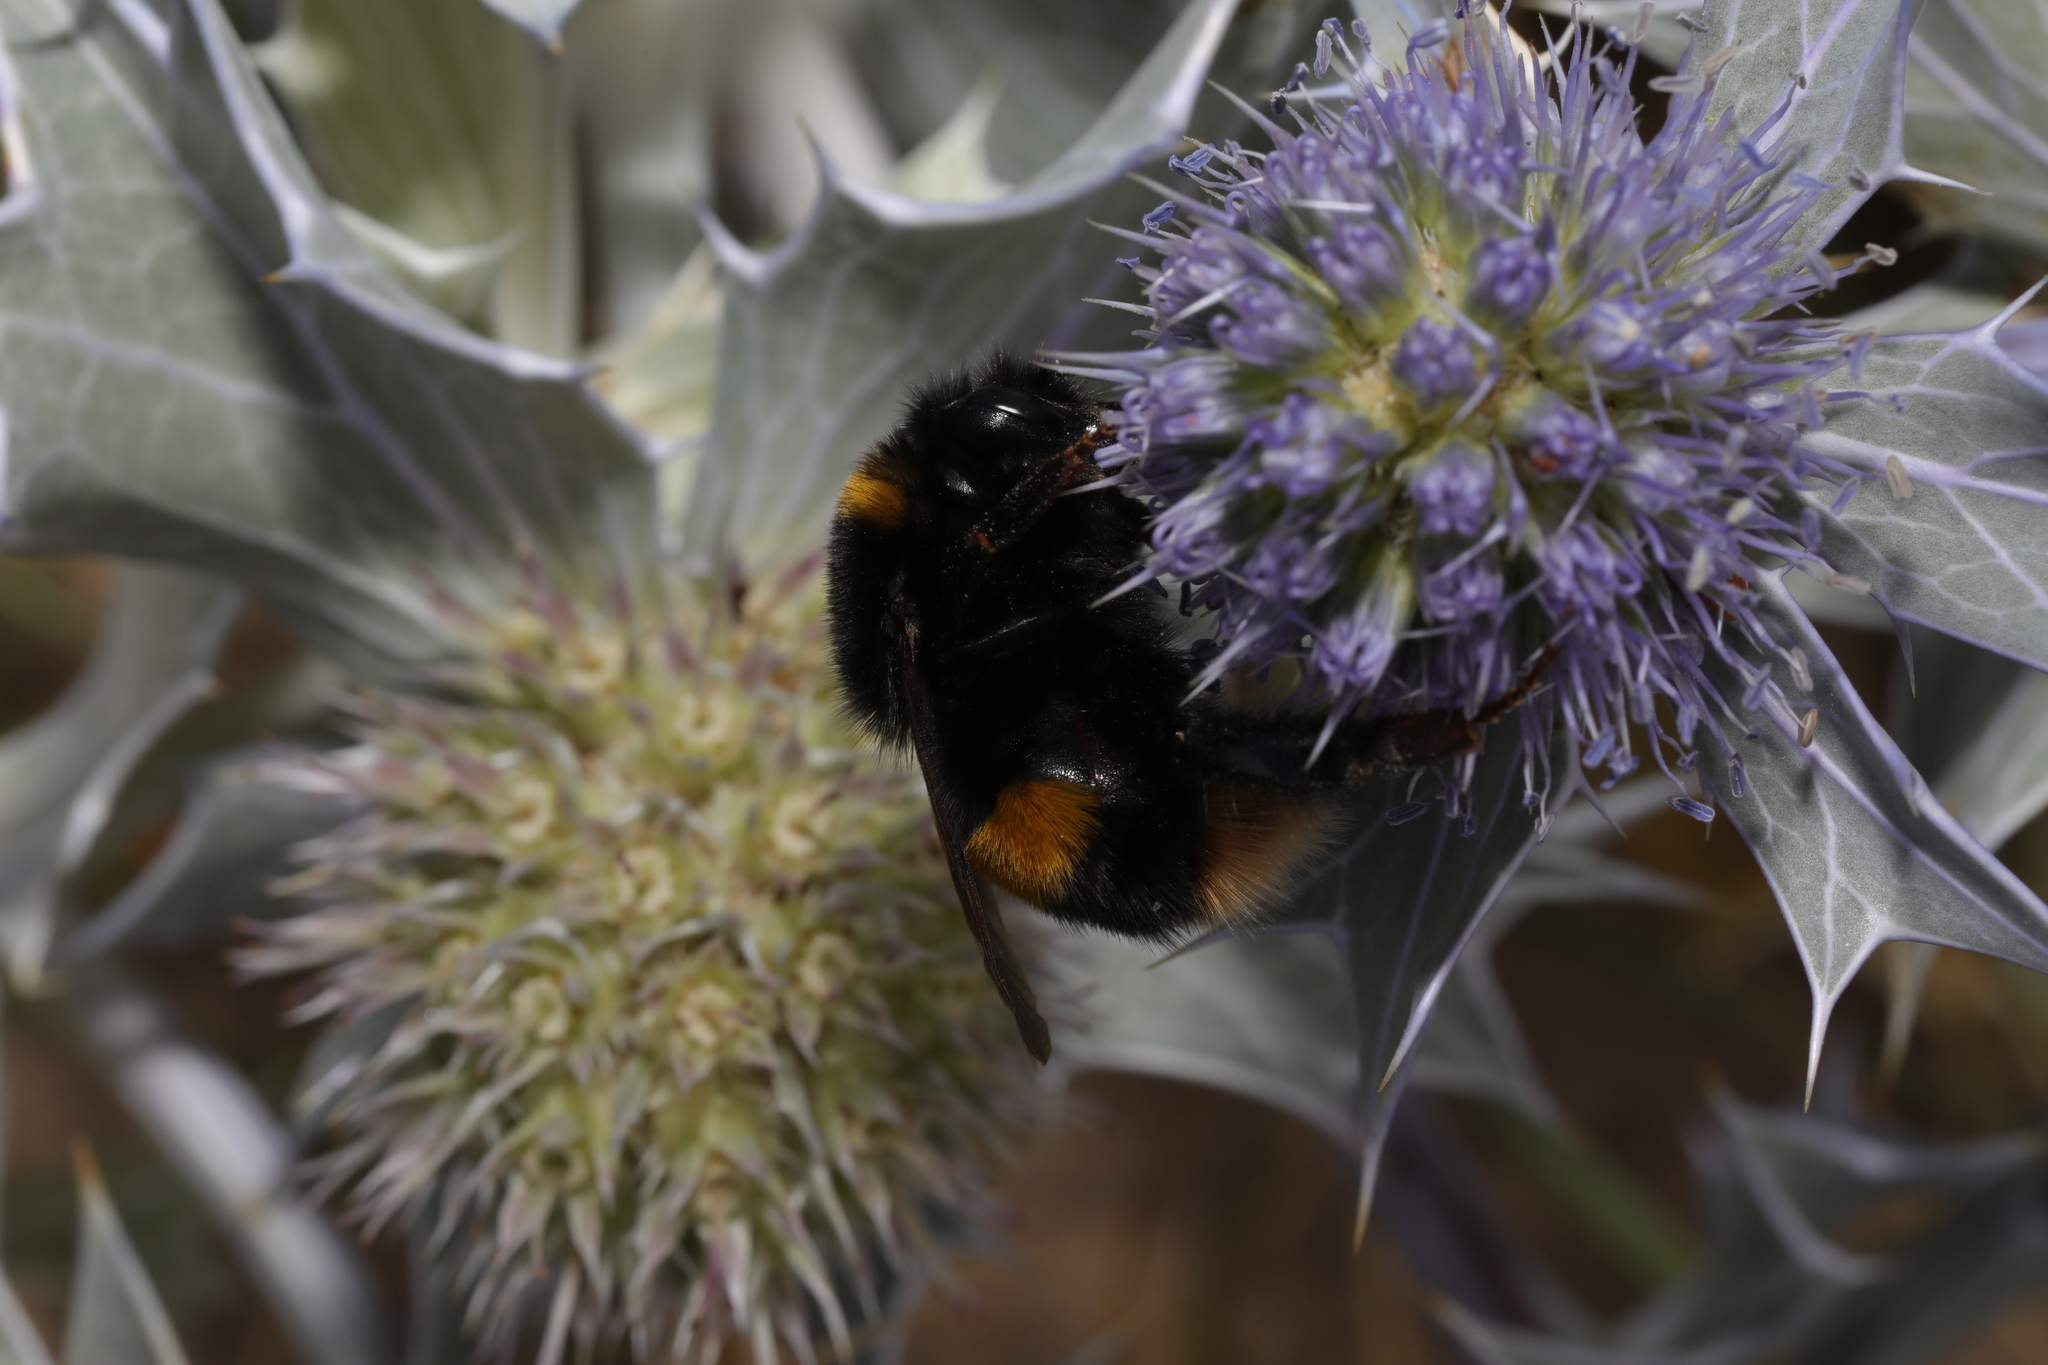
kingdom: Animalia
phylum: Arthropoda
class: Insecta
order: Hymenoptera
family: Apidae
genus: Bombus
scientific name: Bombus terrestris
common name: Buff-tailed bumblebee
